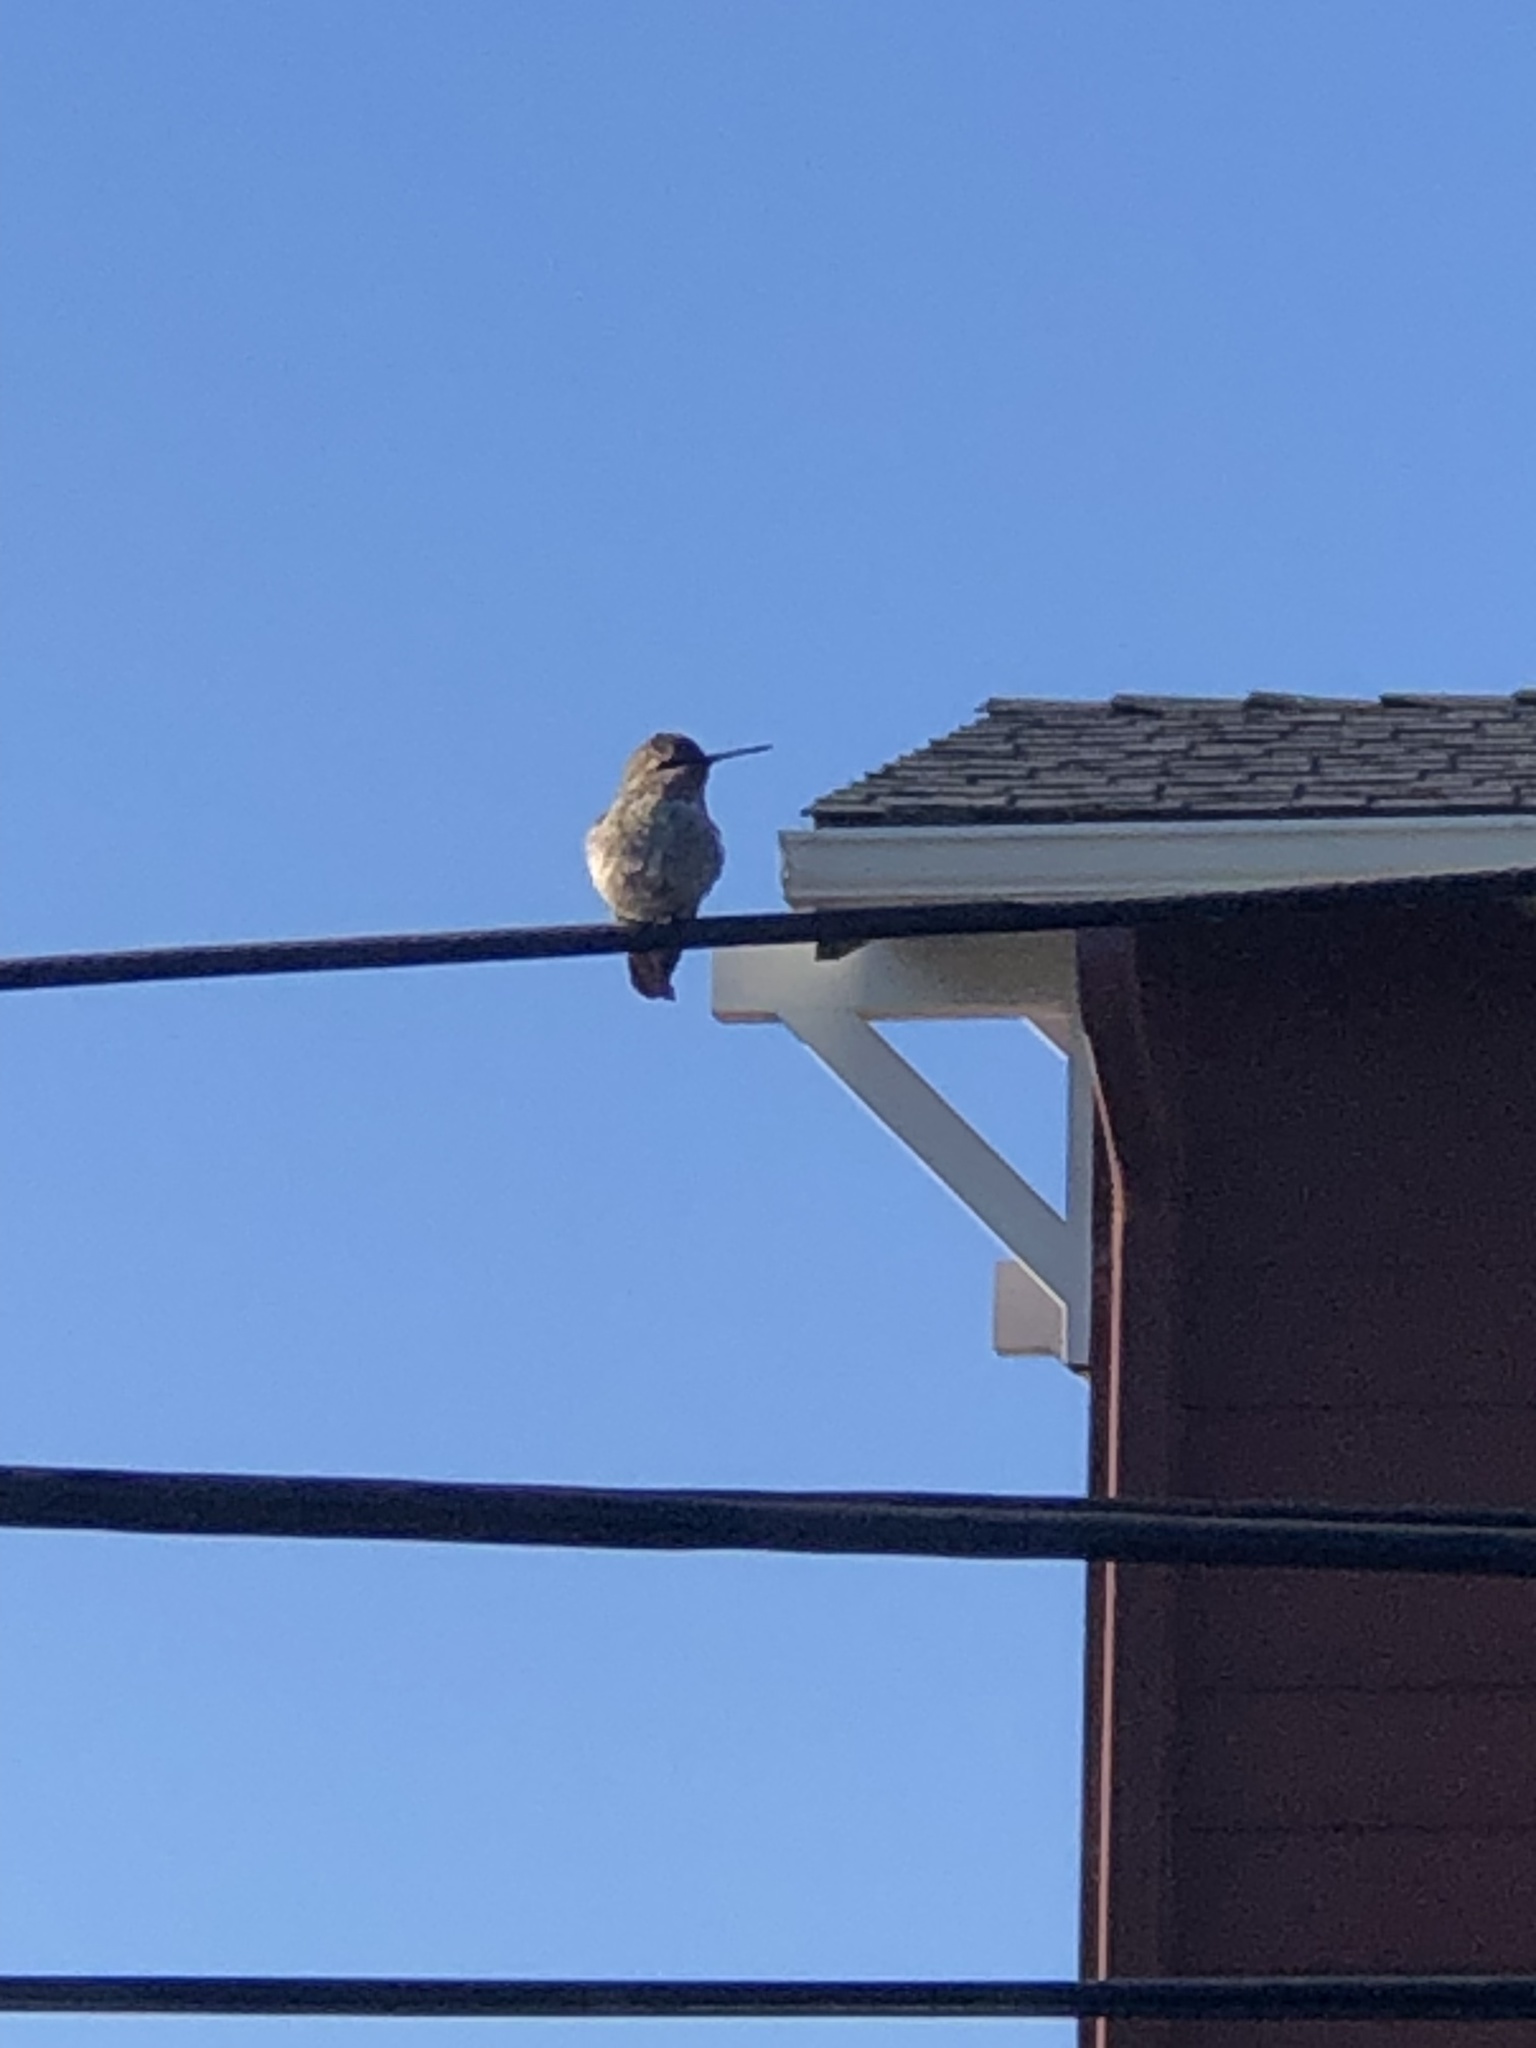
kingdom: Animalia
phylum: Chordata
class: Aves
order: Apodiformes
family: Trochilidae
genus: Calypte
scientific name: Calypte anna
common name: Anna's hummingbird
